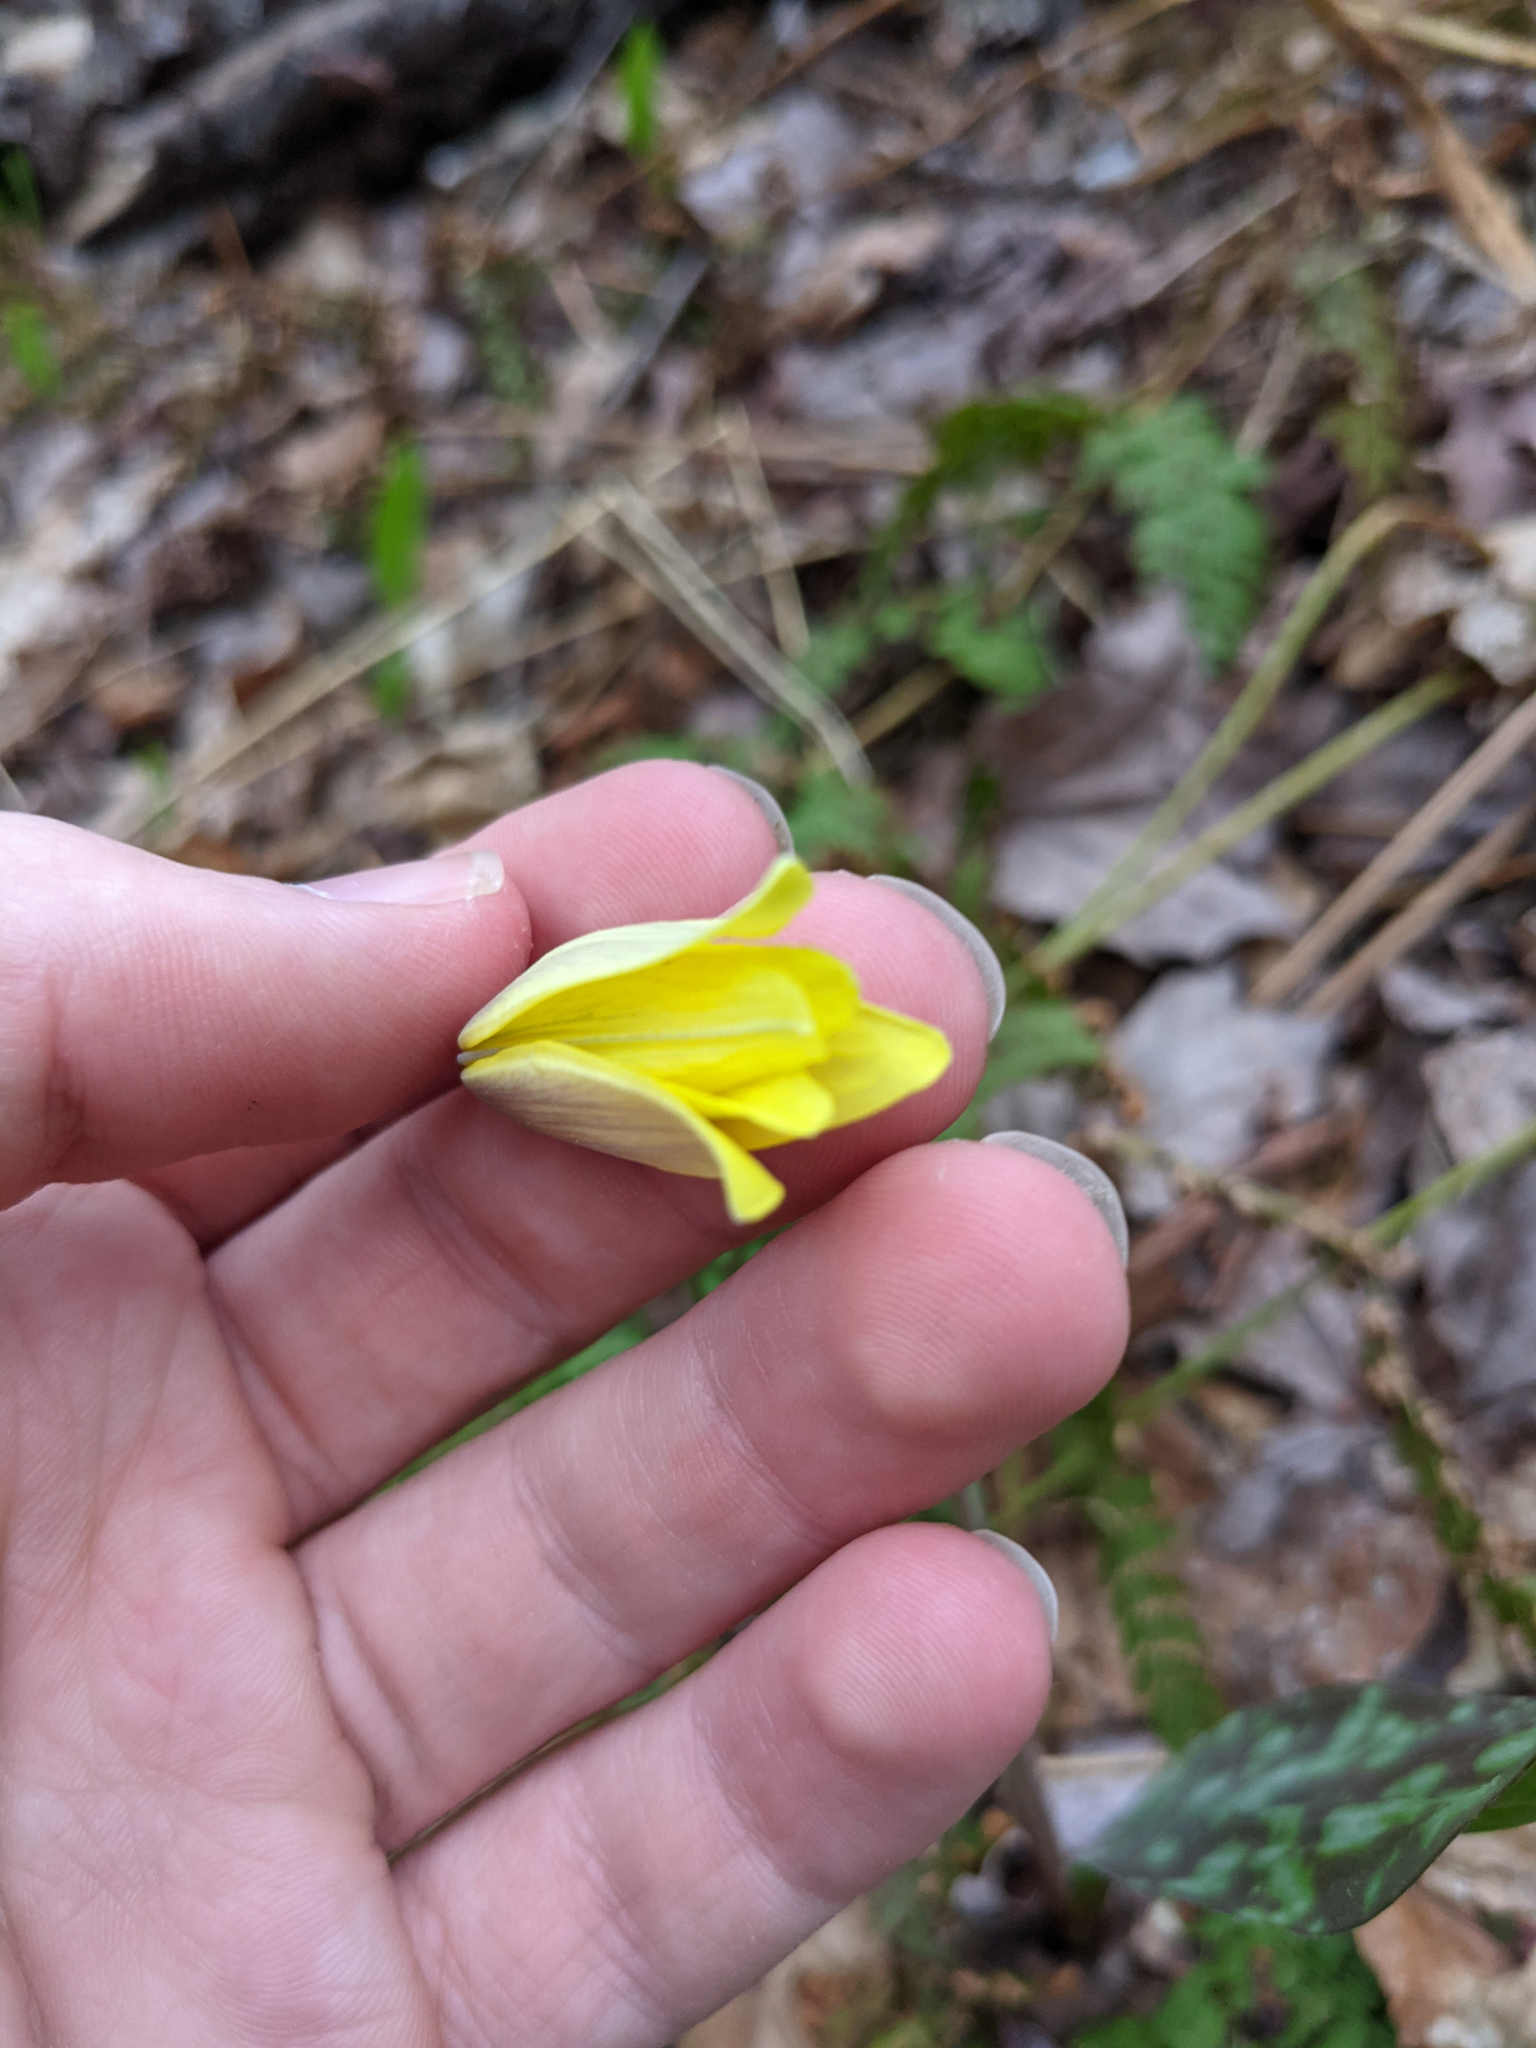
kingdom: Plantae
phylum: Tracheophyta
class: Liliopsida
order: Liliales
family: Liliaceae
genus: Erythronium
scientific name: Erythronium americanum
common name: Yellow adder's-tongue
